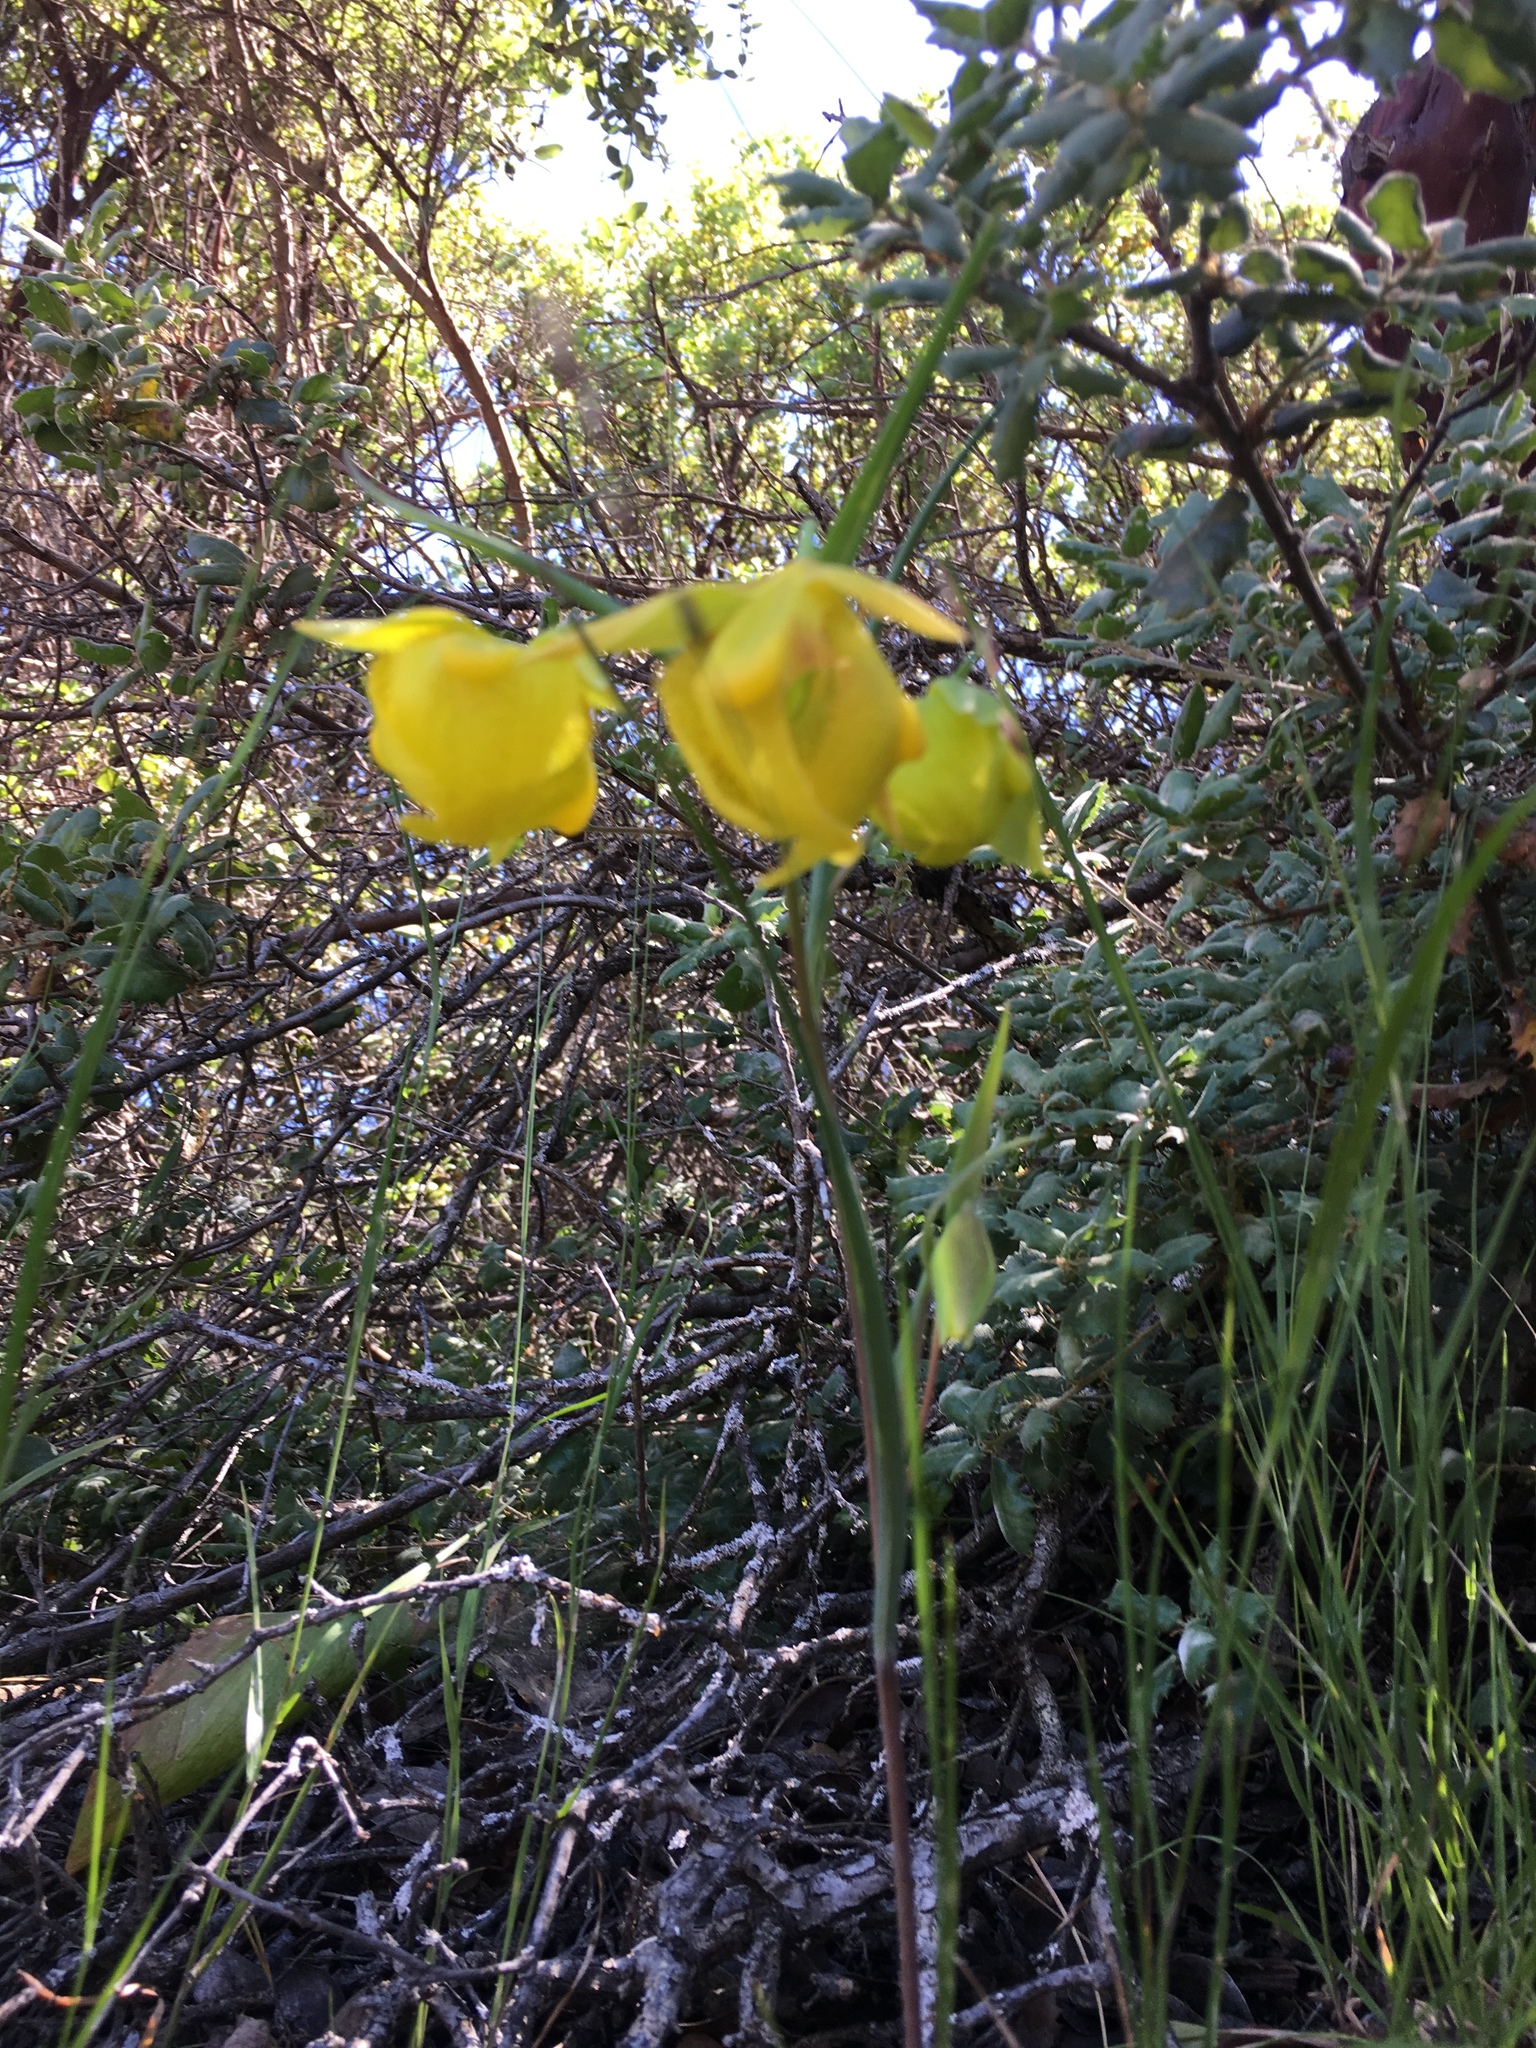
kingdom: Plantae
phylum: Tracheophyta
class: Liliopsida
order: Liliales
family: Liliaceae
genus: Calochortus
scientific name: Calochortus pulchellus
